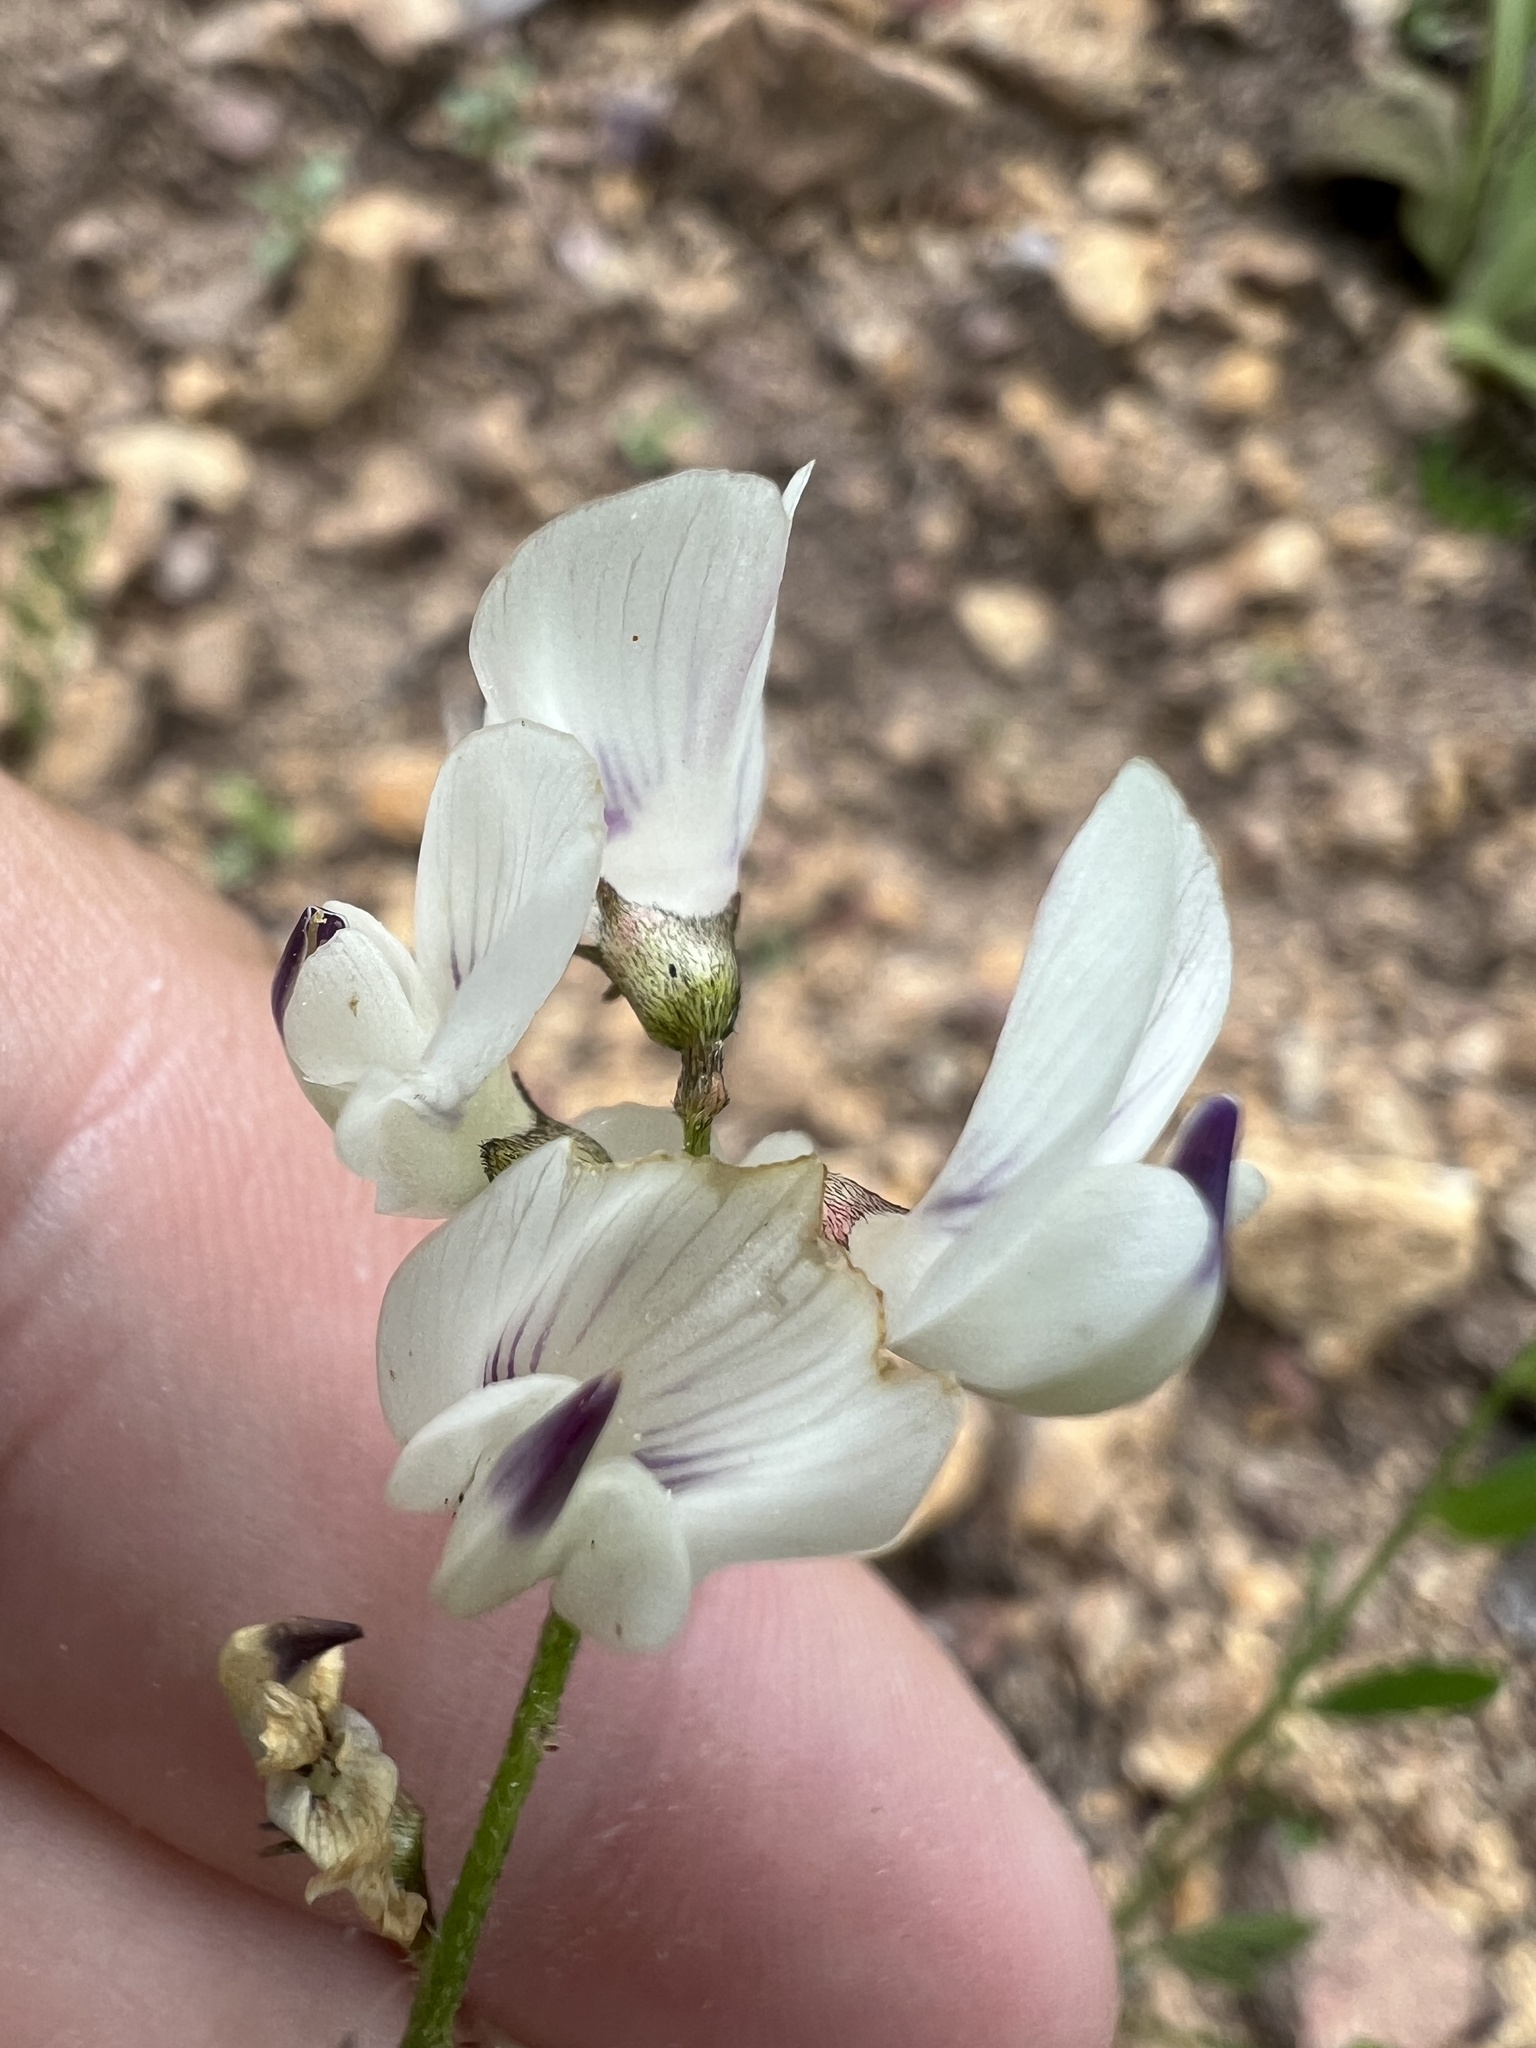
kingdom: Plantae
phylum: Tracheophyta
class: Magnoliopsida
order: Fabales
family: Fabaceae
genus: Astragalus
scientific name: Astragalus miser
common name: Timber milkvetch
